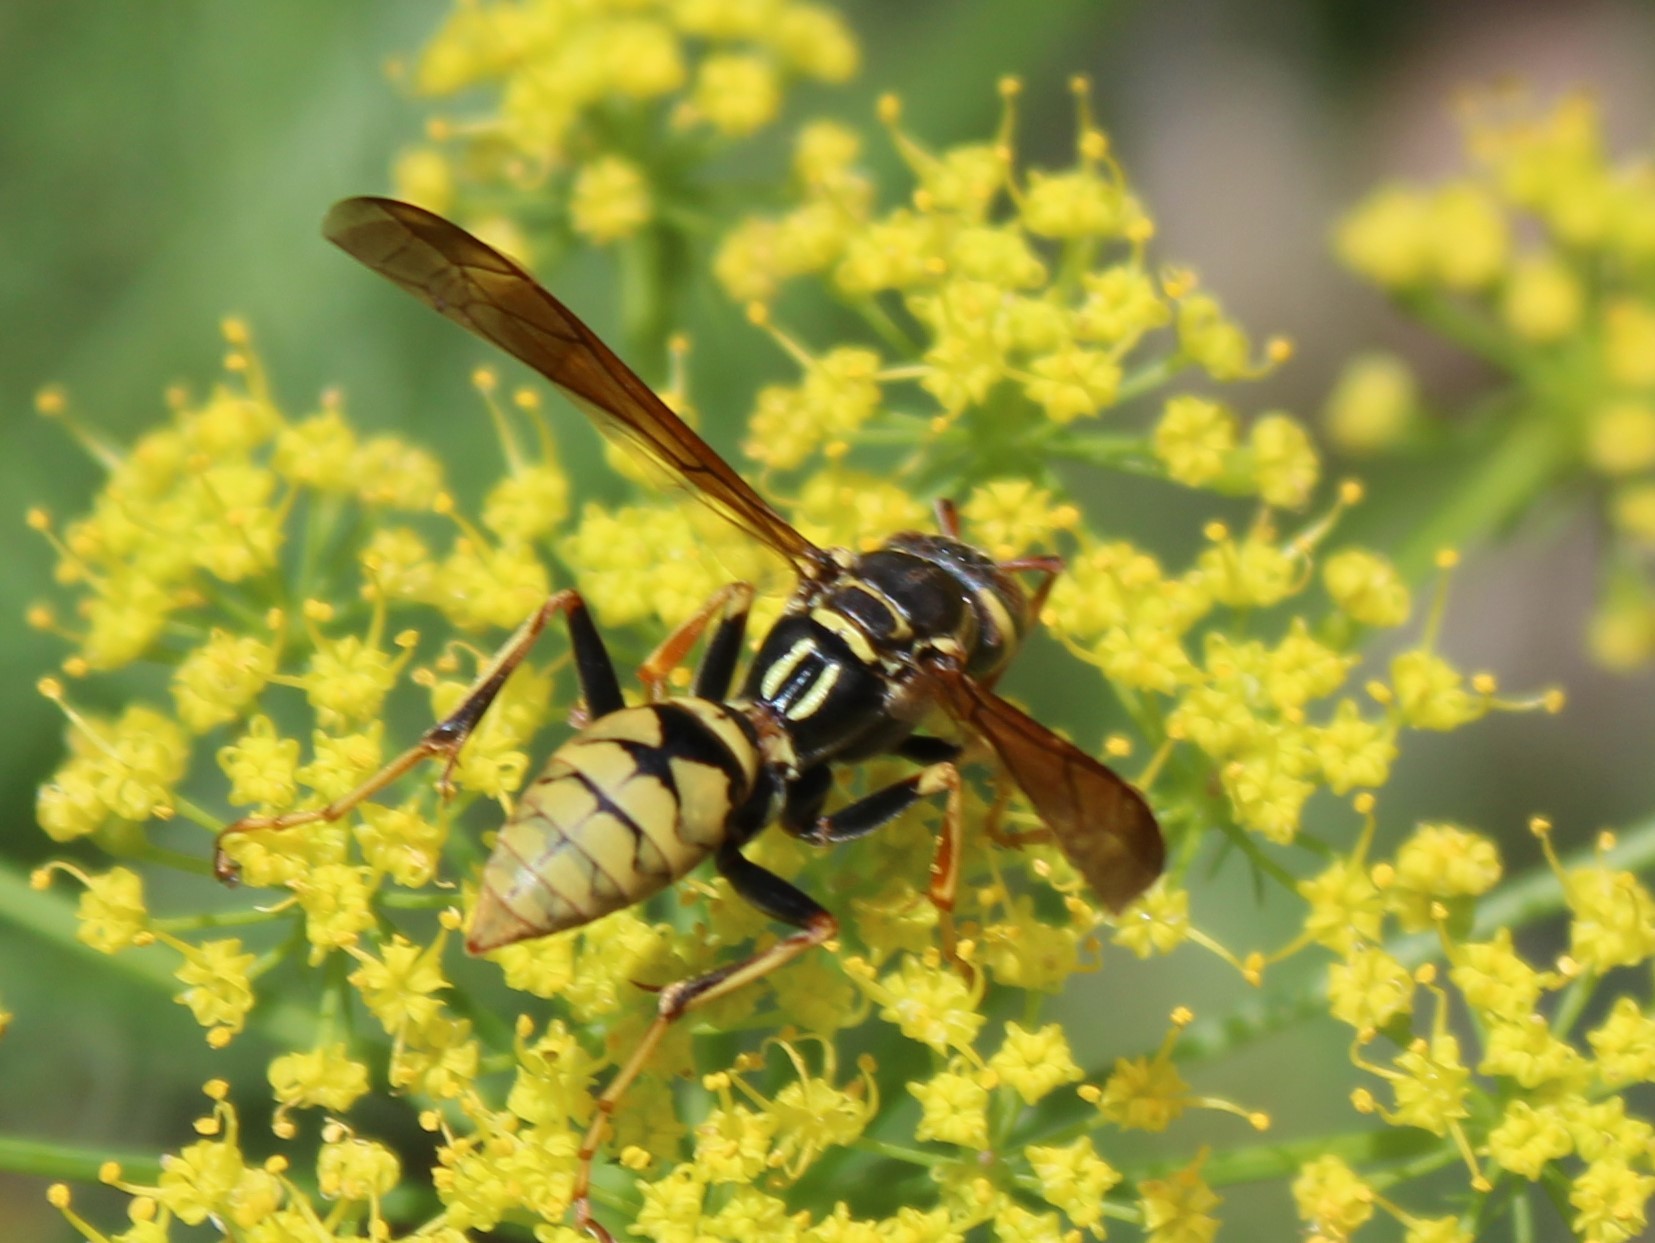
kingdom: Animalia
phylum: Arthropoda
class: Insecta
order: Hymenoptera
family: Eumenidae
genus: Polistes
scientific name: Polistes aurifer
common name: Paper wasp
